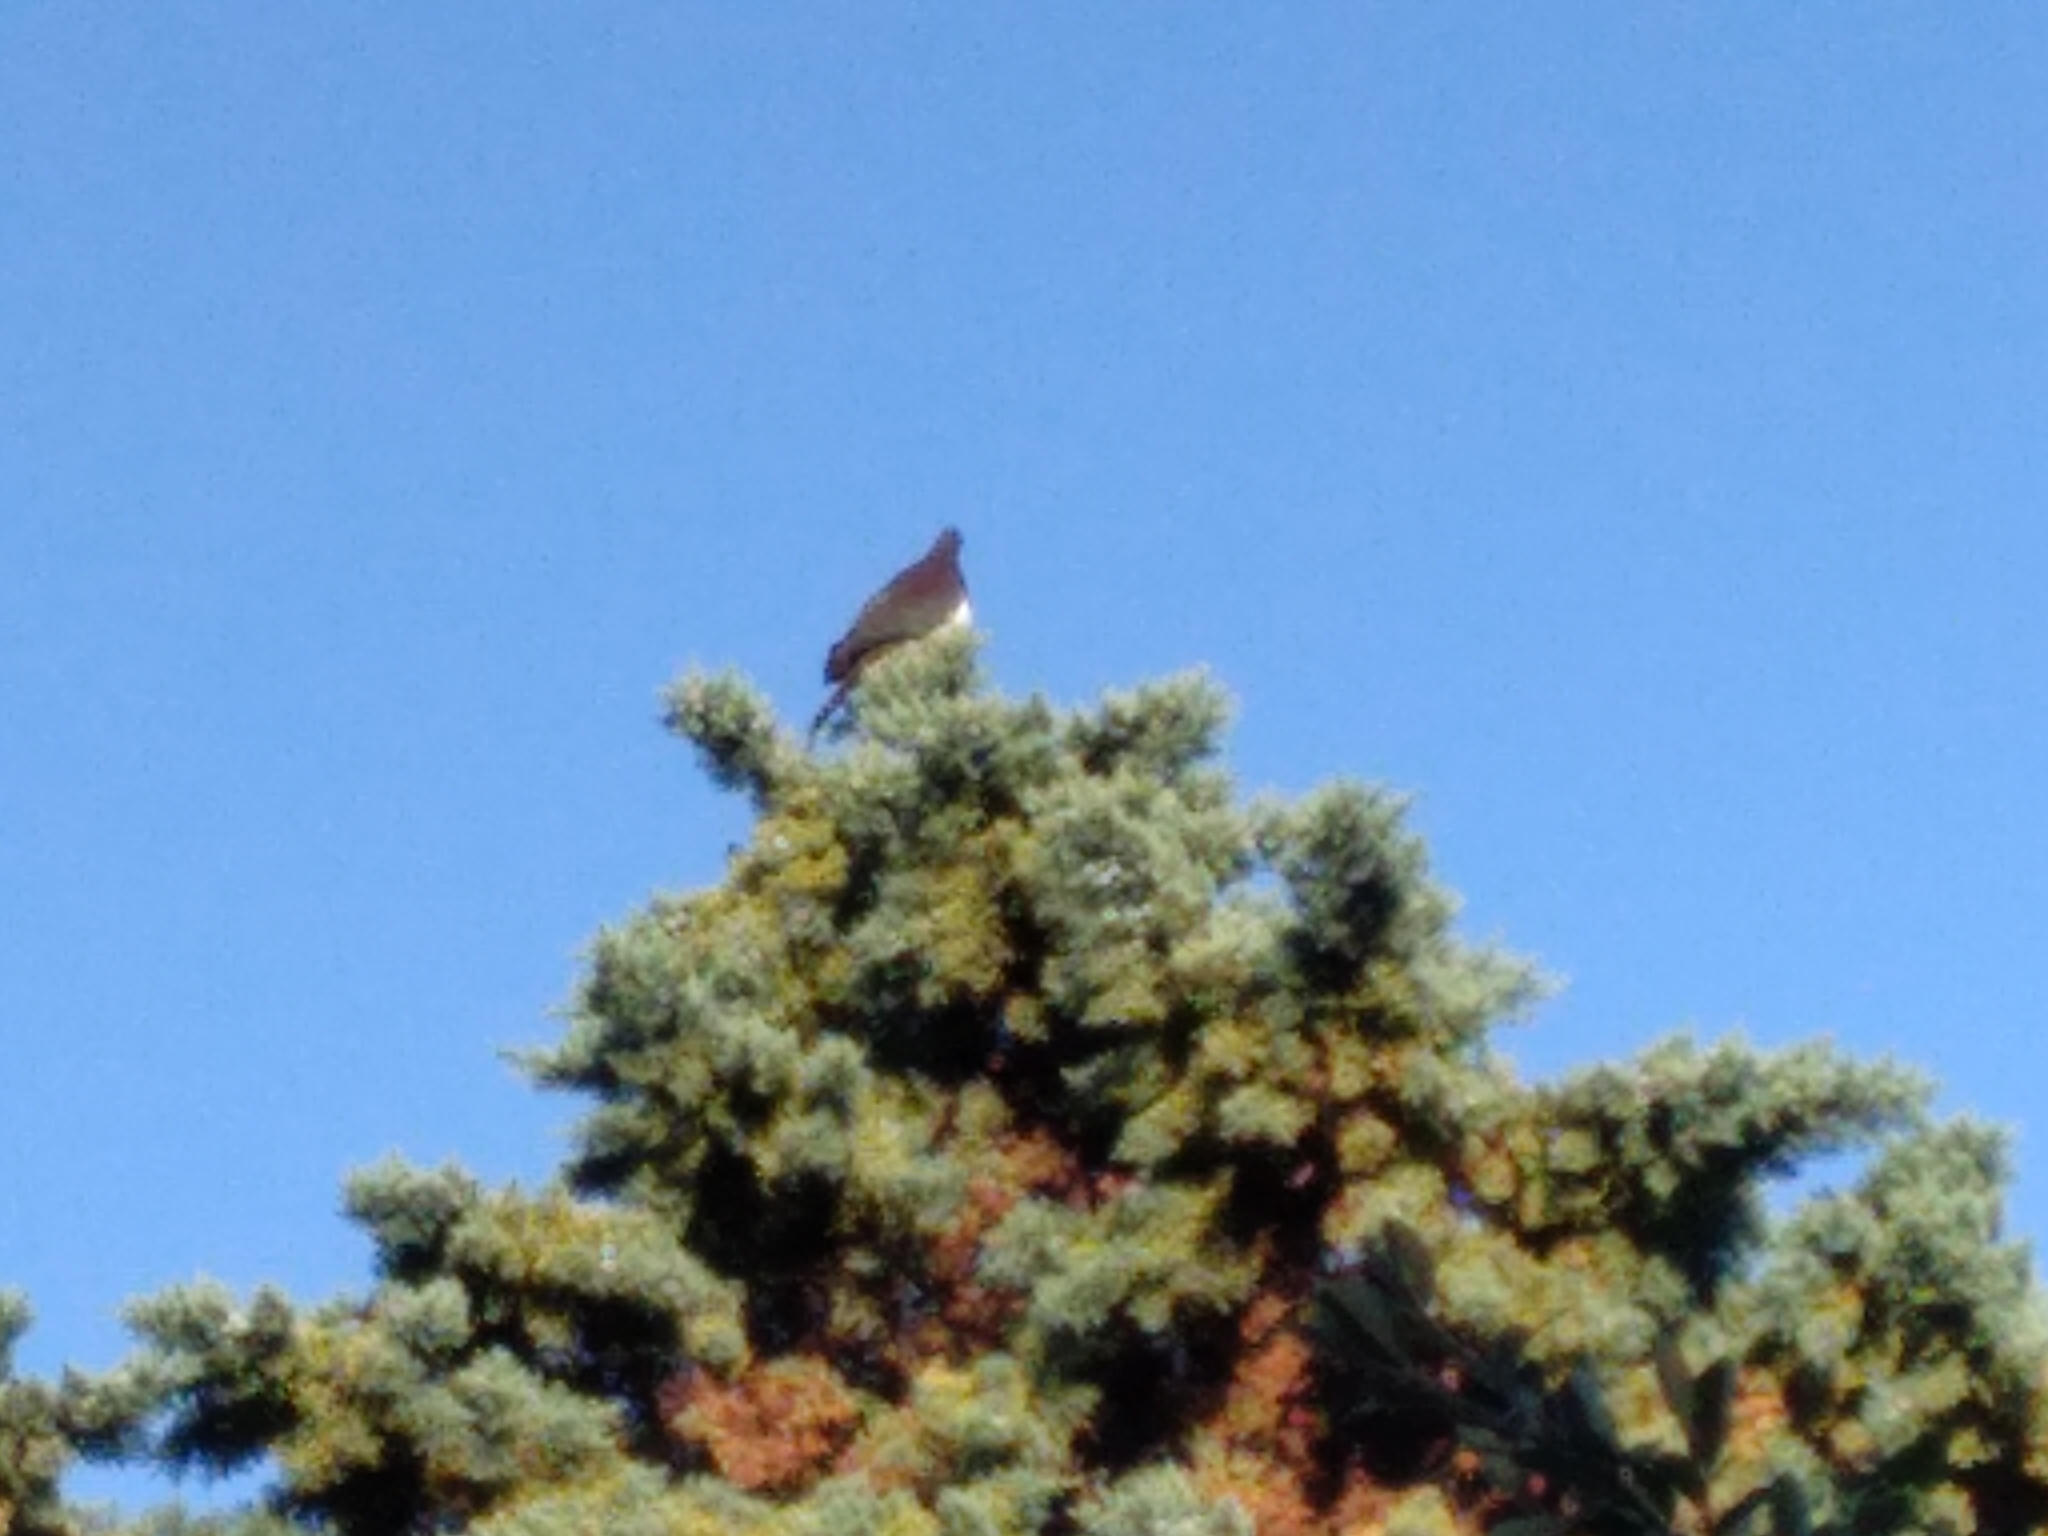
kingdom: Animalia
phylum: Chordata
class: Aves
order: Columbiformes
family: Columbidae
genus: Hemiphaga
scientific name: Hemiphaga novaeseelandiae
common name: New zealand pigeon
